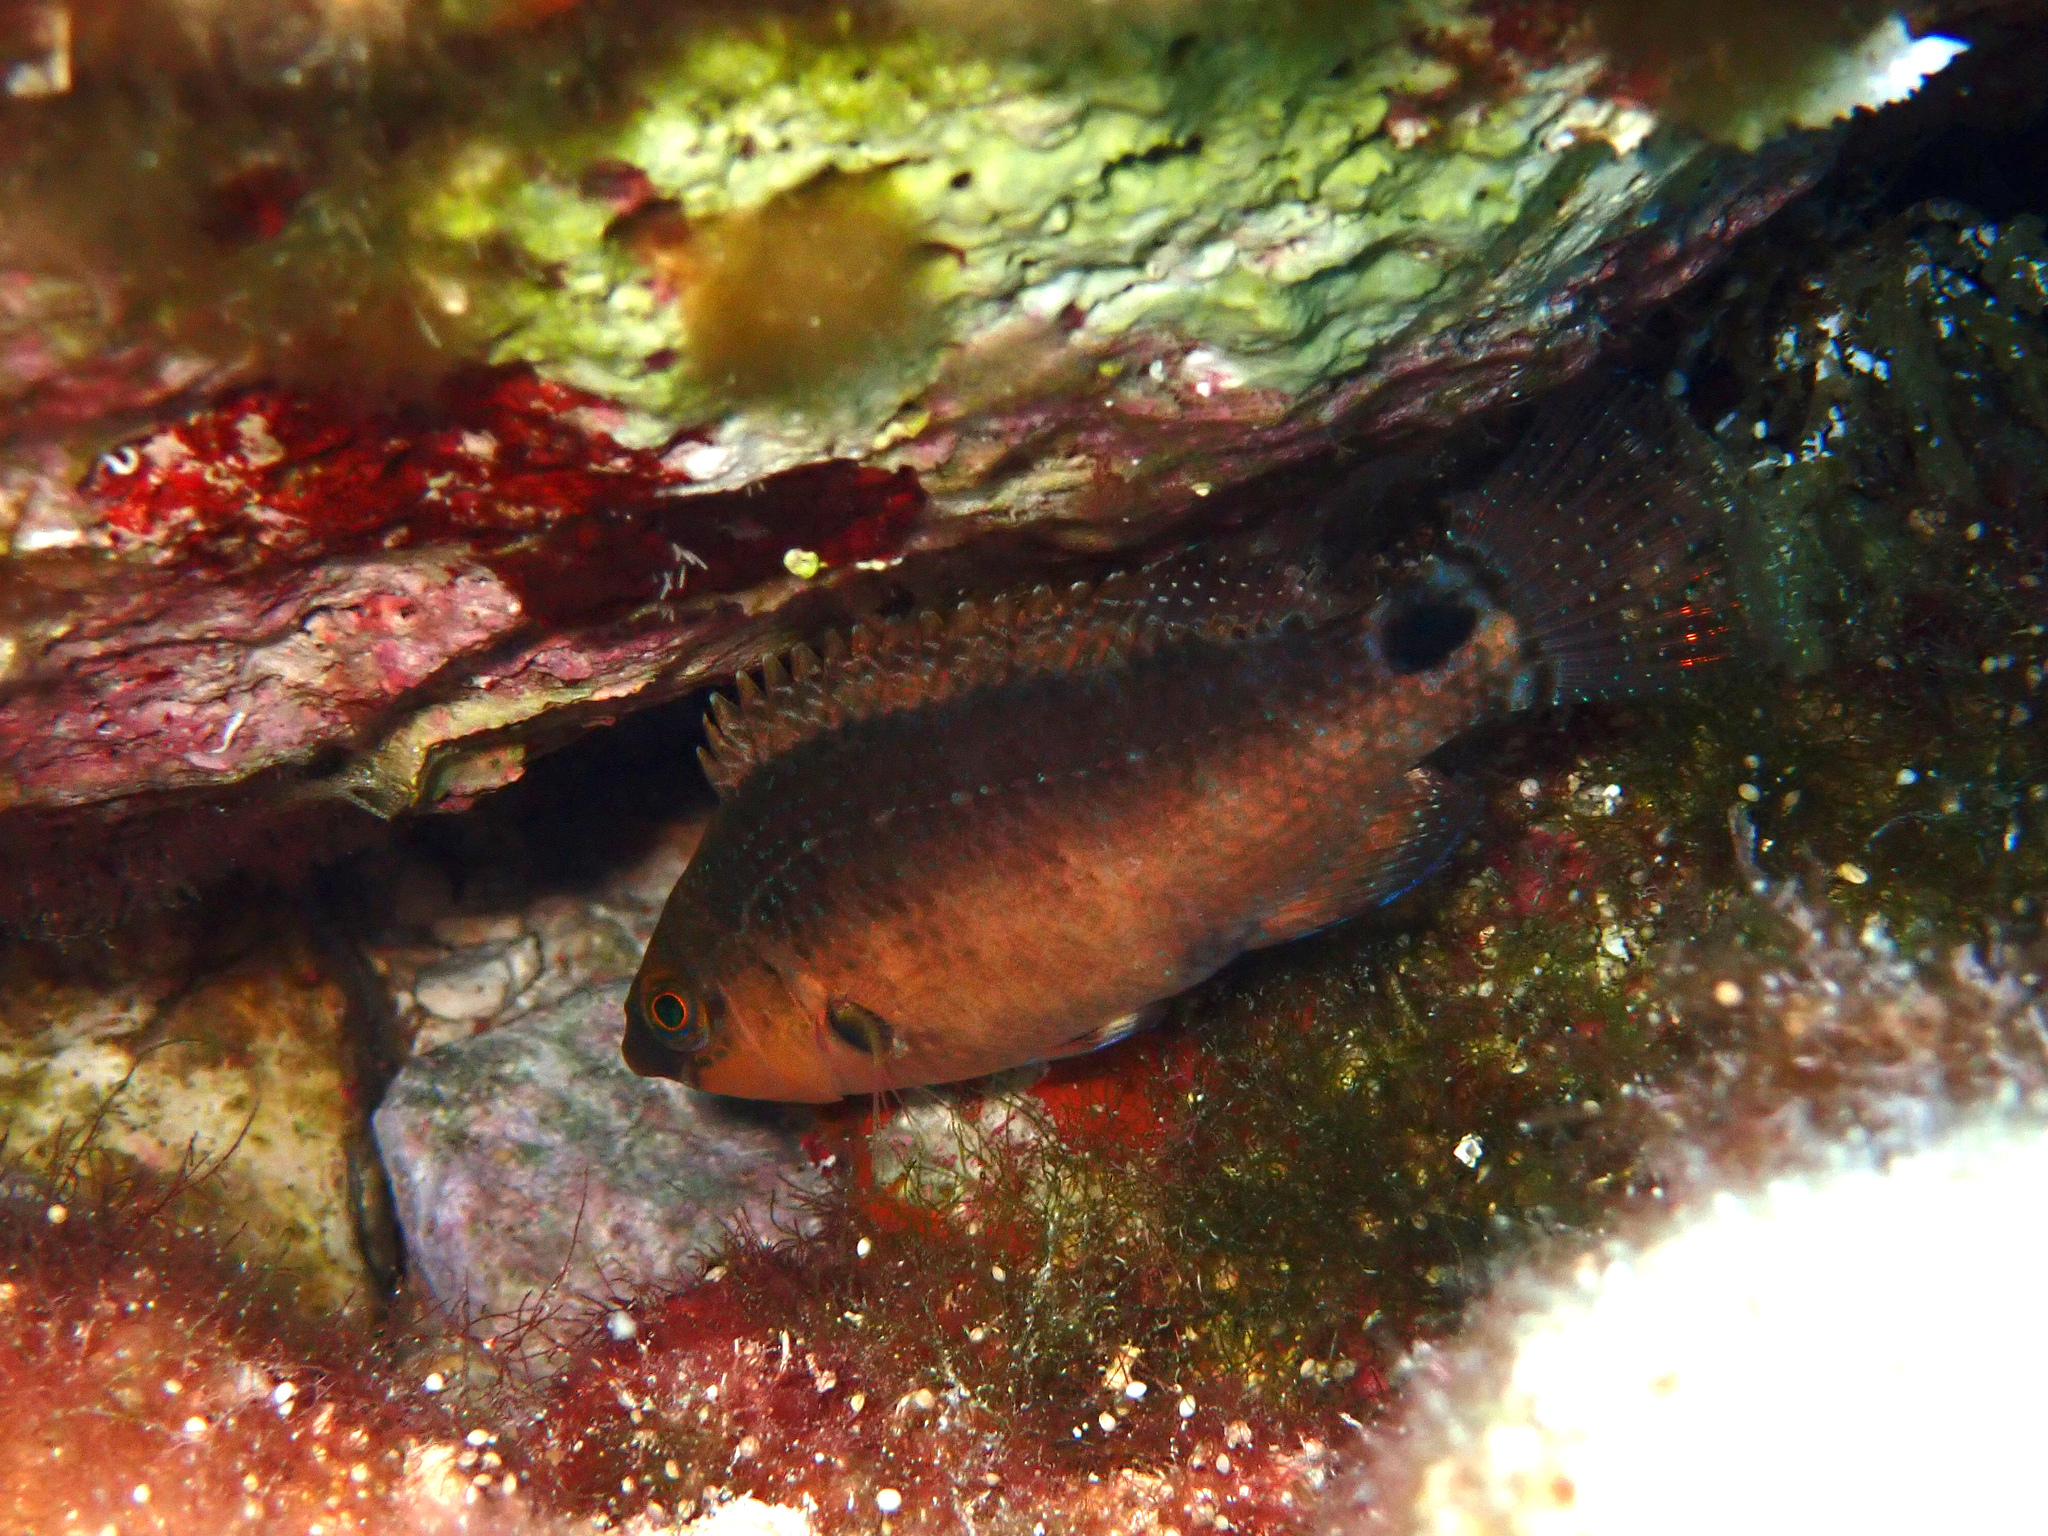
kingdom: Animalia
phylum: Chordata
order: Perciformes
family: Labridae
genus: Symphodus
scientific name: Symphodus mediterraneus
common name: Axillary wrasse
